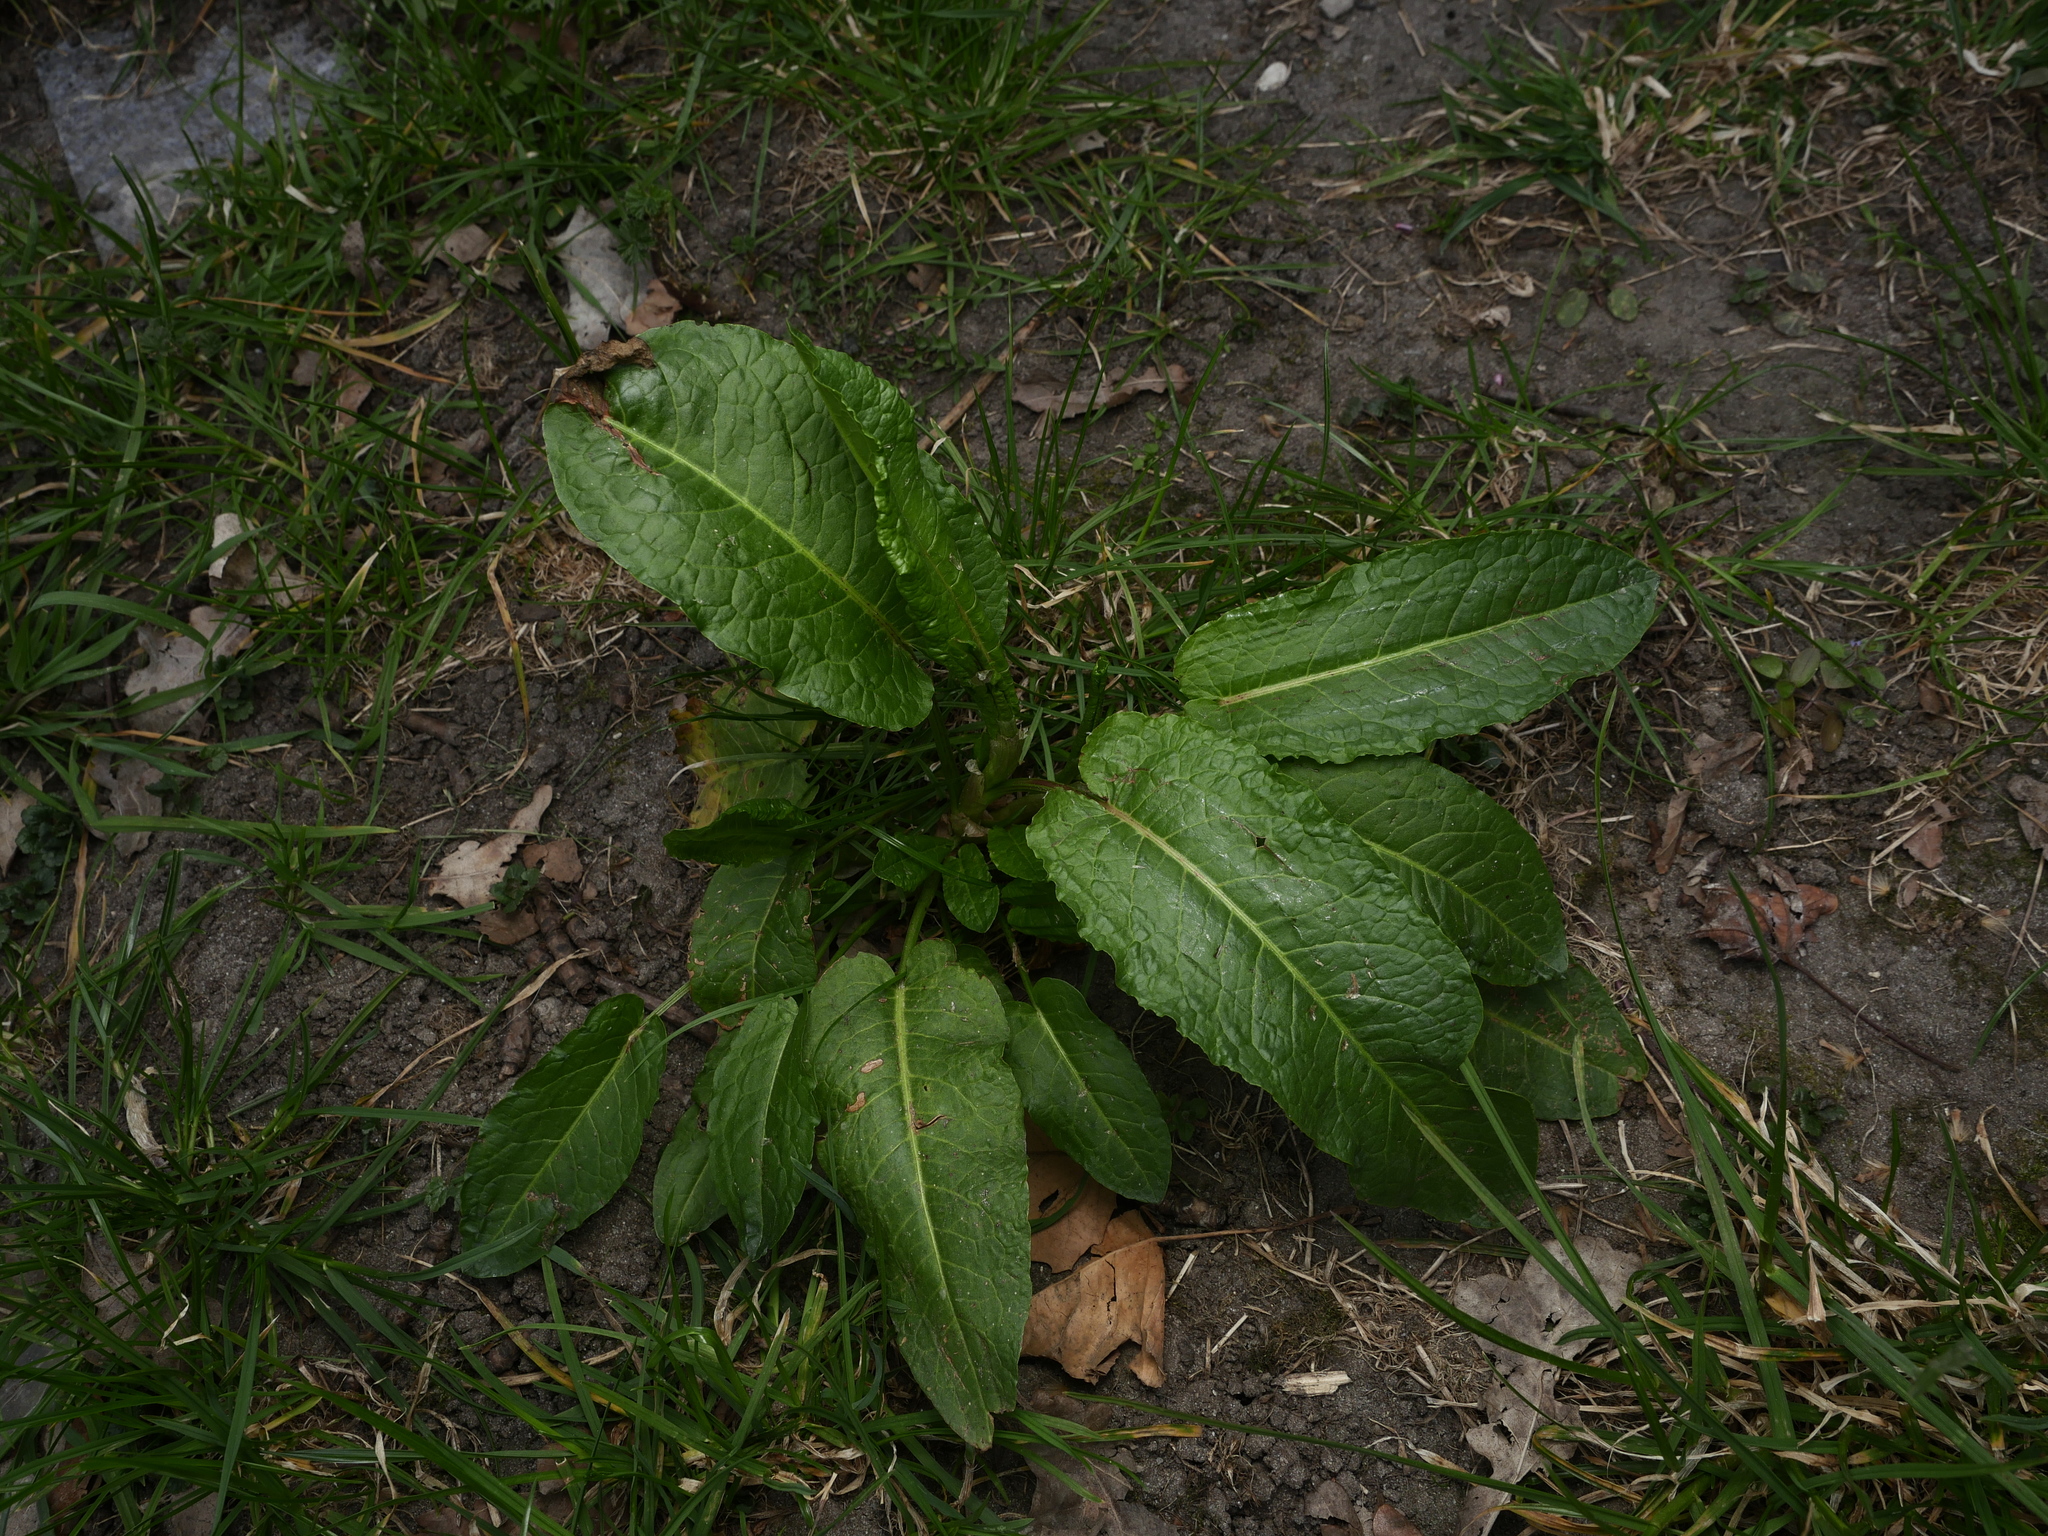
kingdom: Plantae
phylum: Tracheophyta
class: Magnoliopsida
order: Caryophyllales
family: Polygonaceae
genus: Rumex
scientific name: Rumex obtusifolius
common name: Bitter dock
